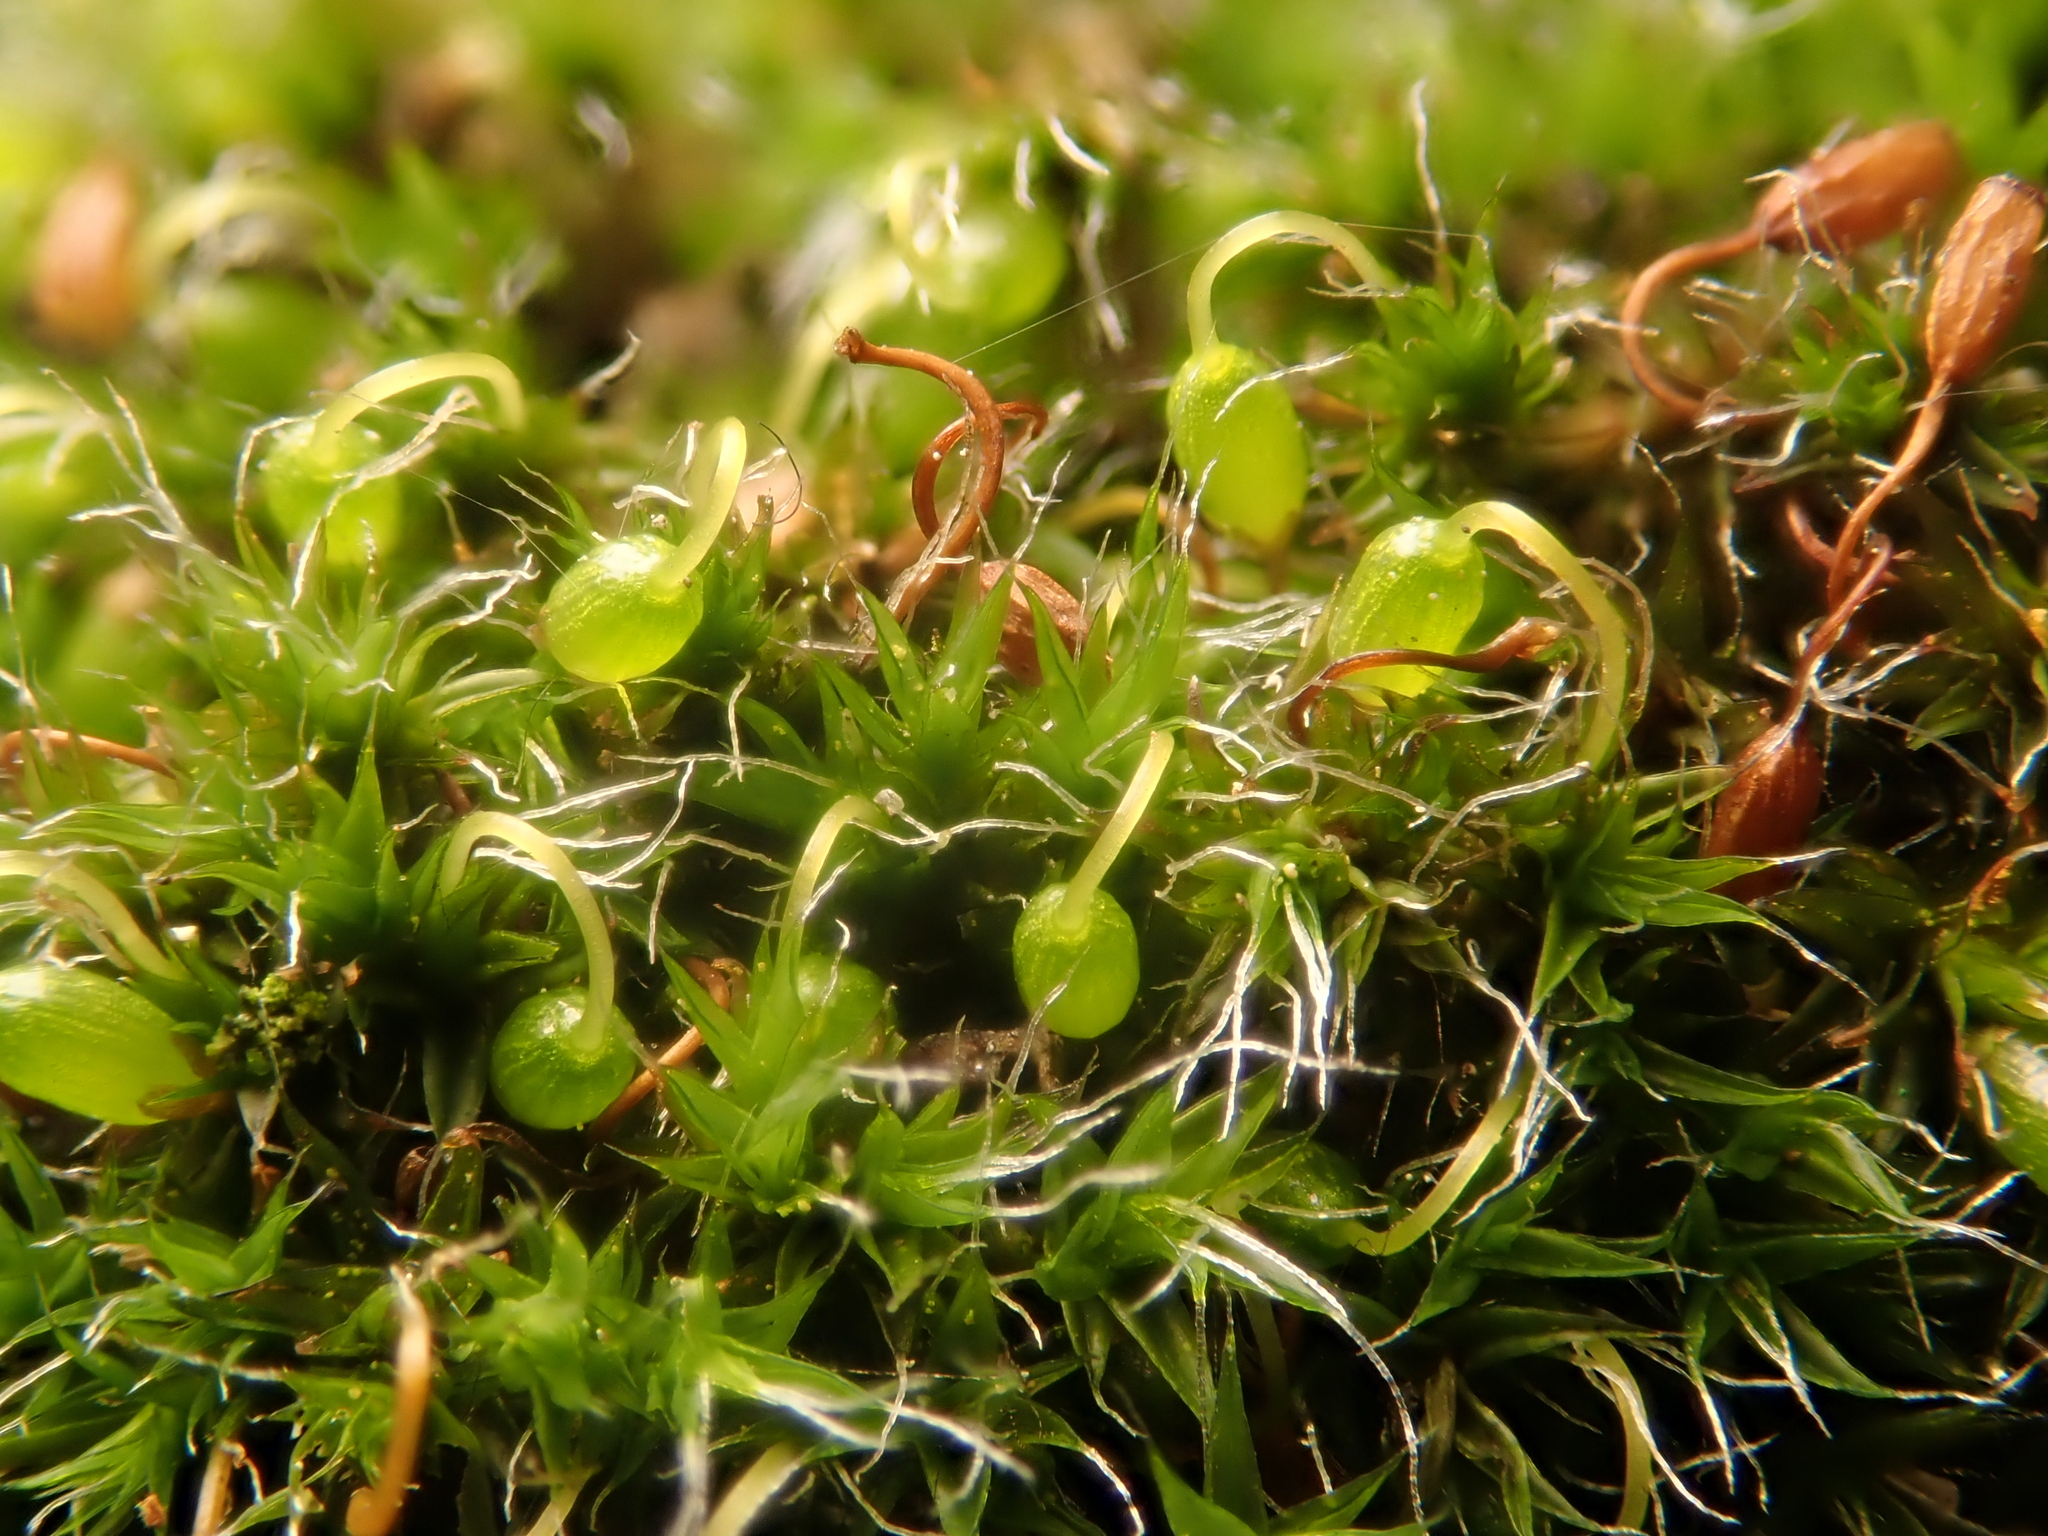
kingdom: Plantae
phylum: Bryophyta
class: Bryopsida
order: Grimmiales
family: Grimmiaceae
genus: Grimmia
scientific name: Grimmia pulvinata
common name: Grey-cushioned grimmia
